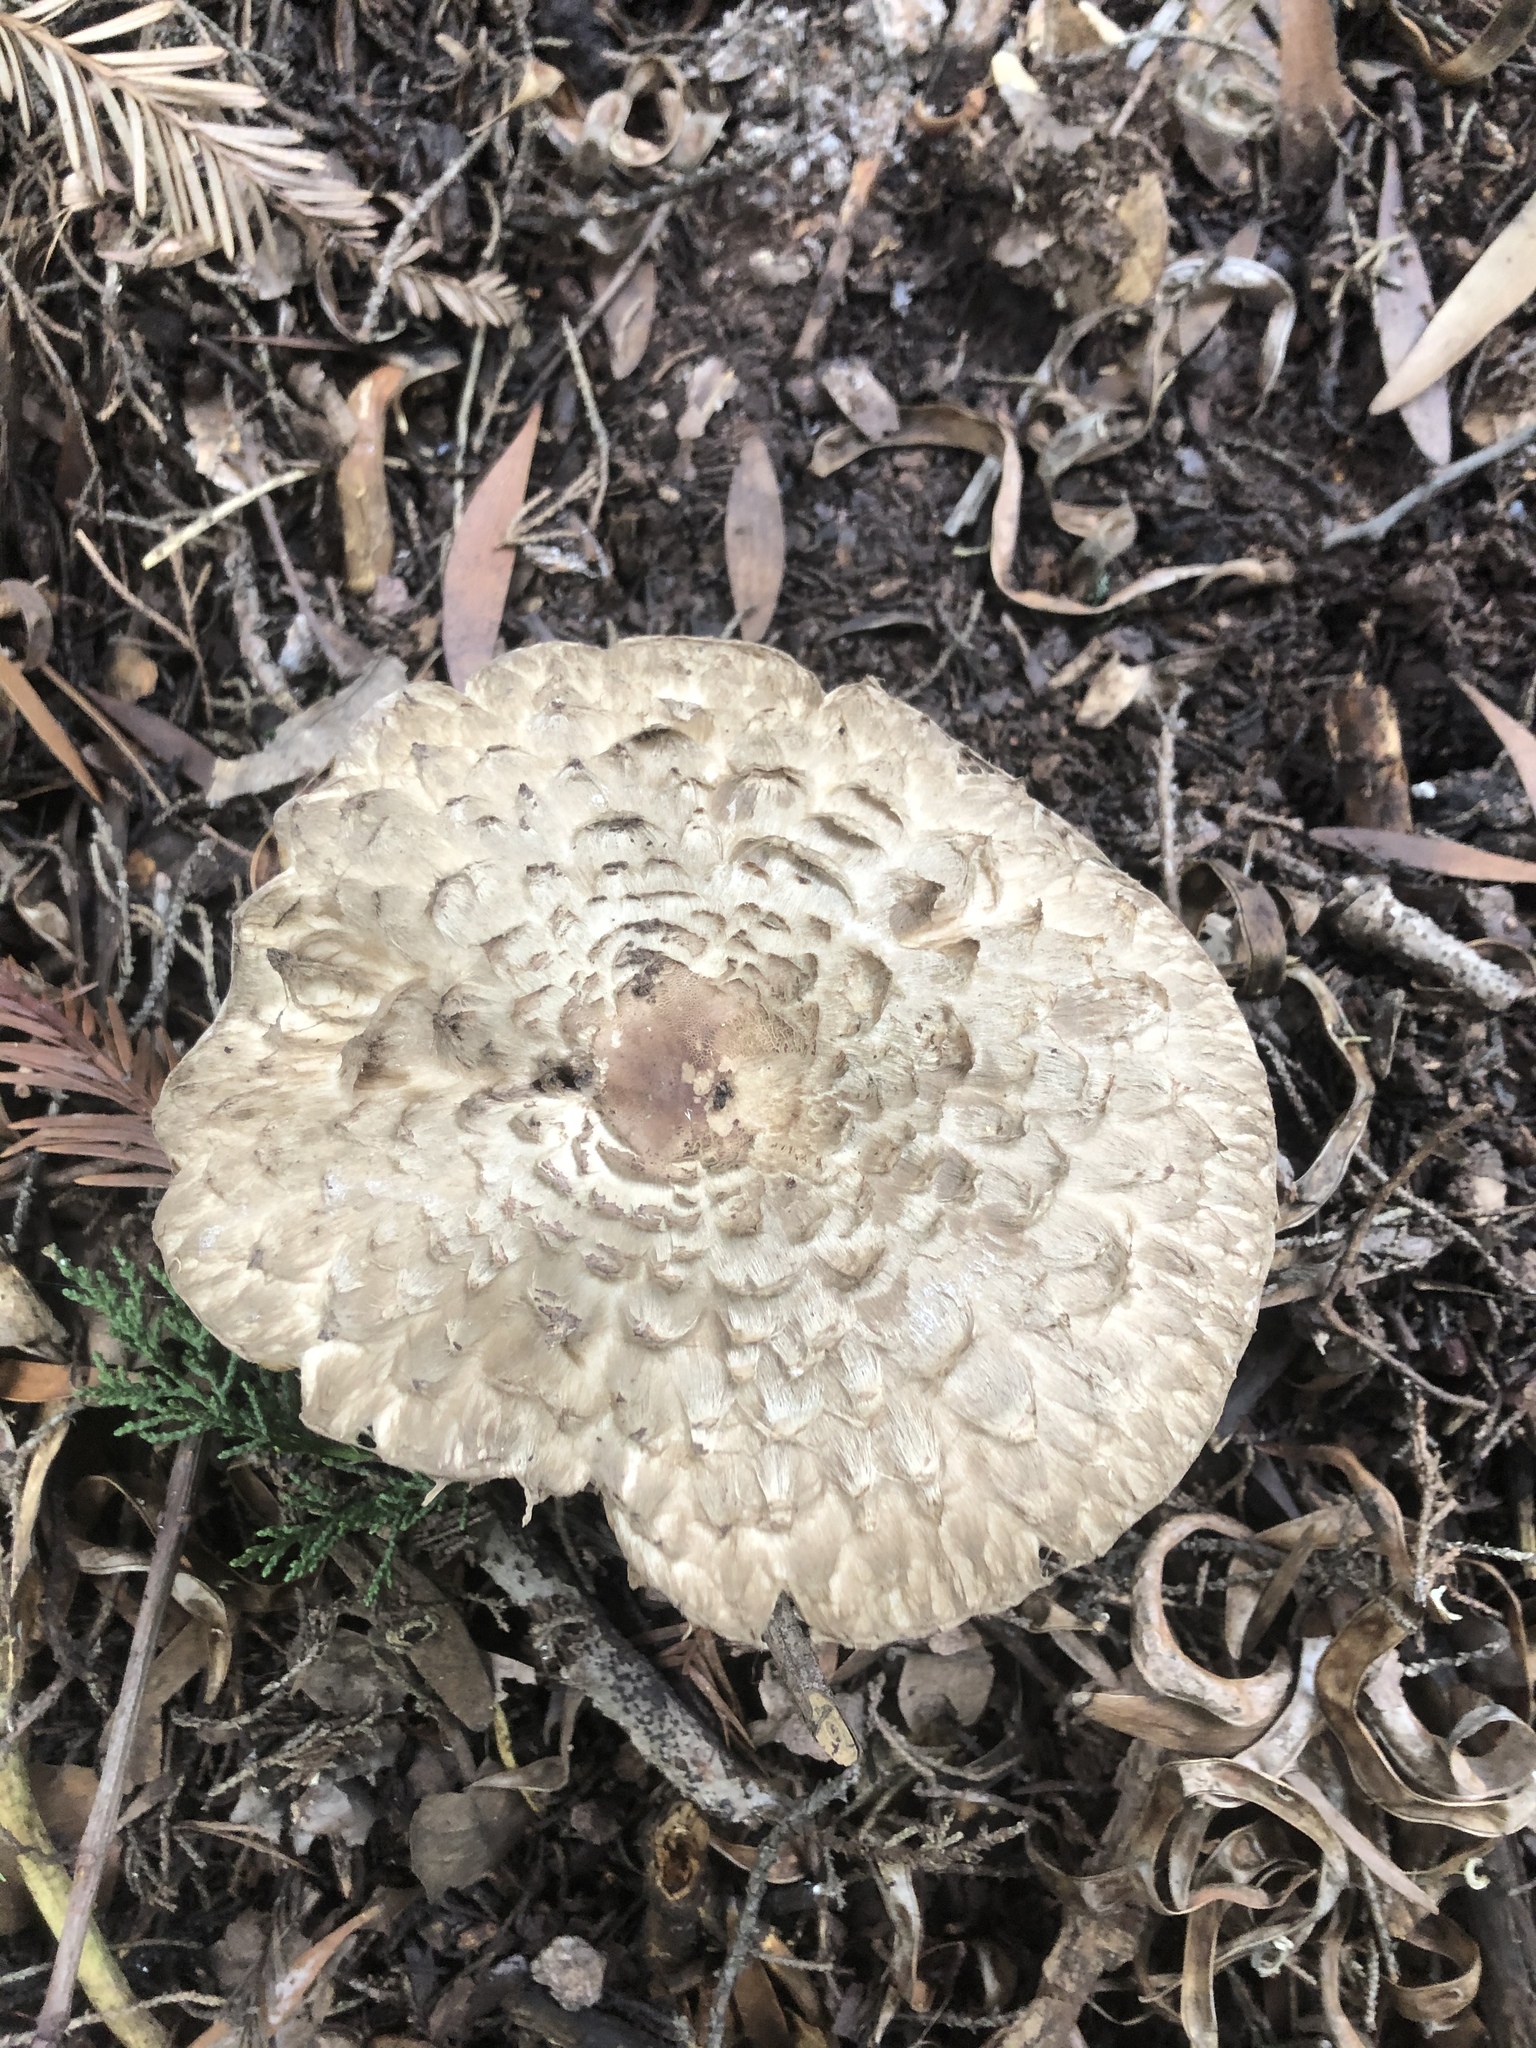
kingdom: Fungi
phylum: Basidiomycota
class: Agaricomycetes
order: Agaricales
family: Agaricaceae
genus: Chlorophyllum
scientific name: Chlorophyllum olivieri
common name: Conifer parasol
